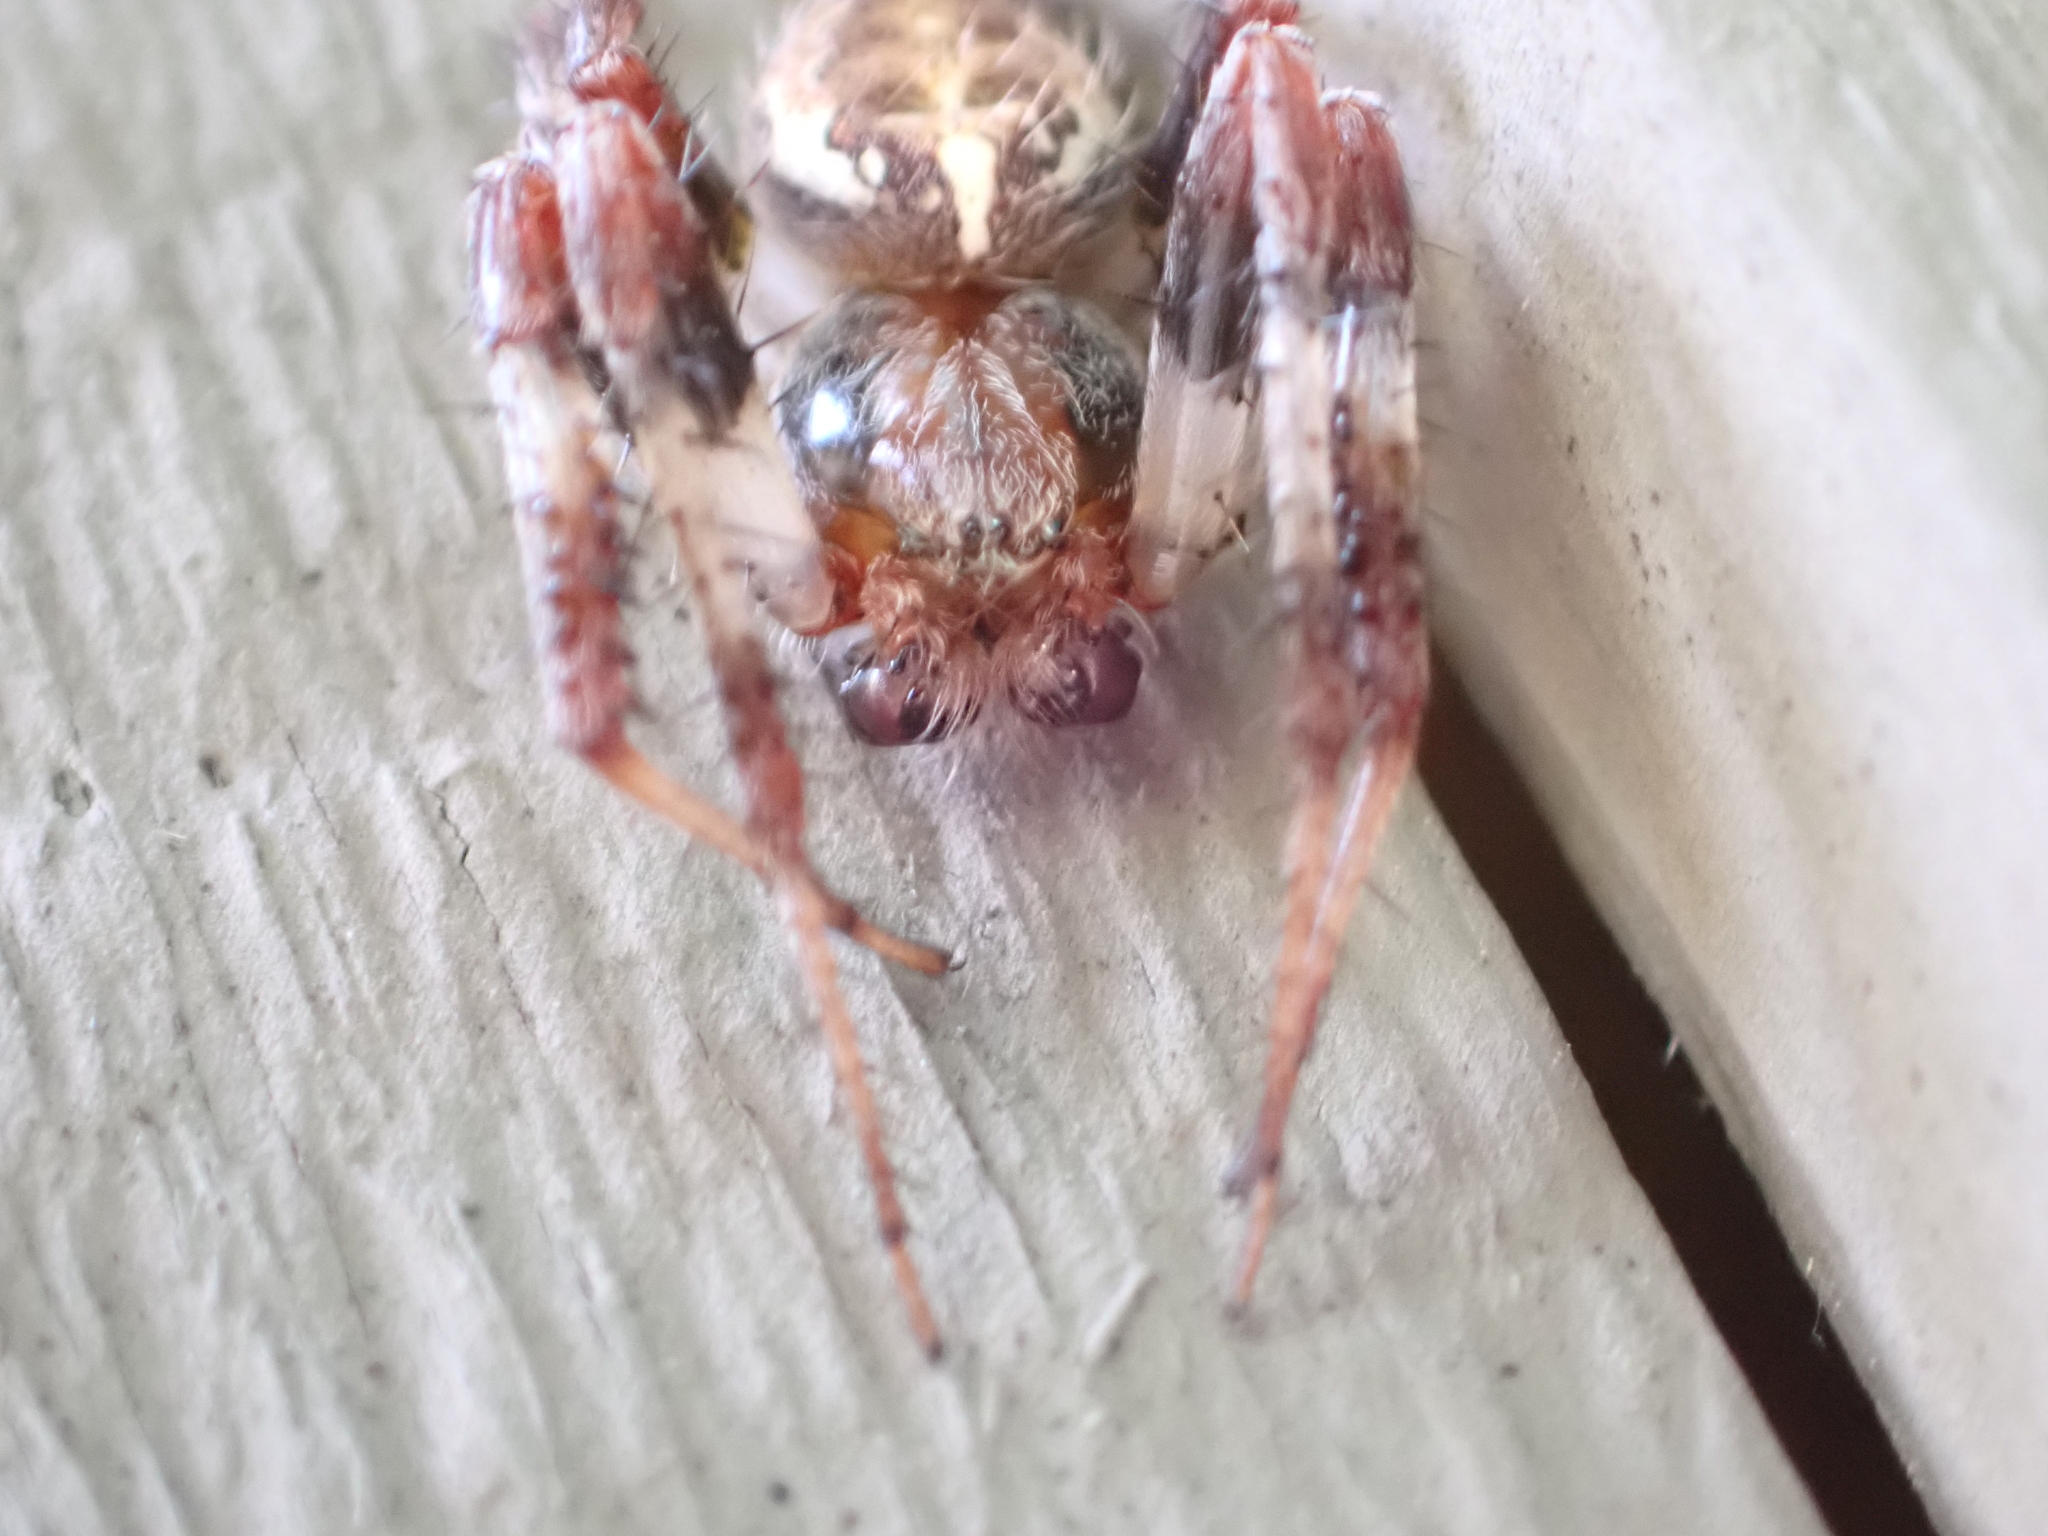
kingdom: Animalia
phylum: Arthropoda
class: Arachnida
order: Araneae
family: Araneidae
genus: Araneus
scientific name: Araneus marmoreus
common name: Marbled orbweaver
